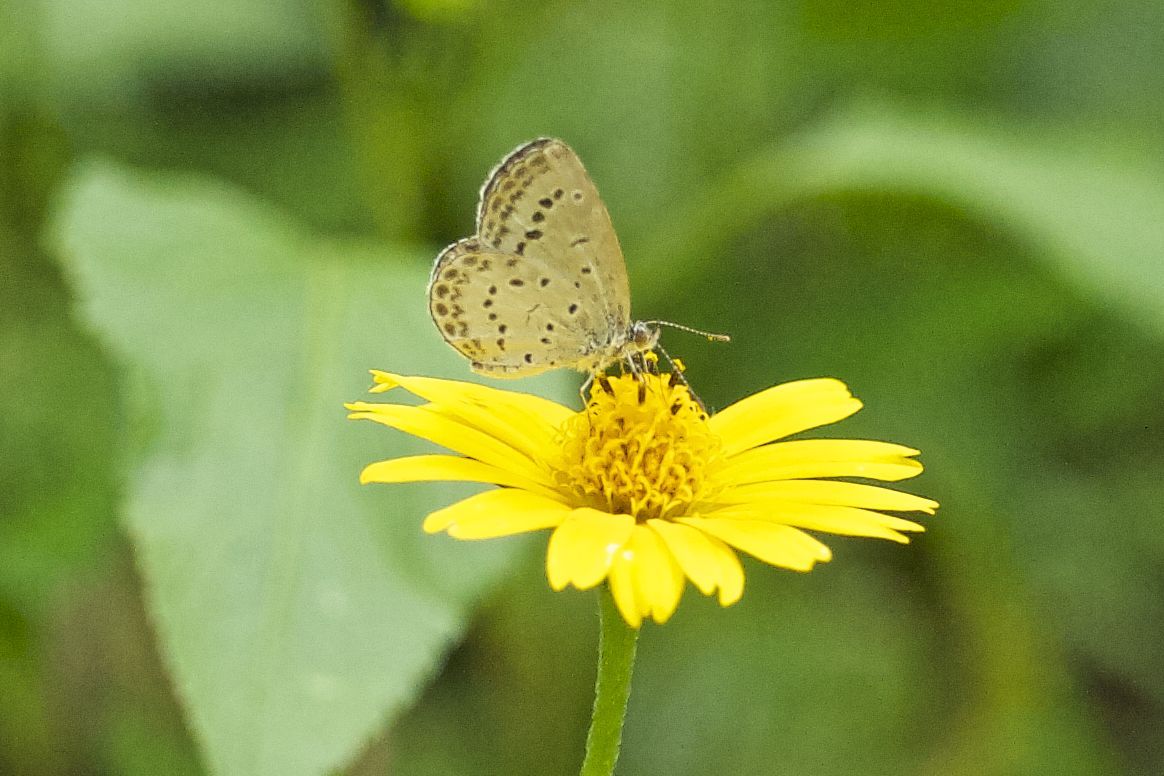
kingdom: Animalia
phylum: Arthropoda
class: Insecta
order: Lepidoptera
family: Lycaenidae
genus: Pseudozizeeria
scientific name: Pseudozizeeria maha
